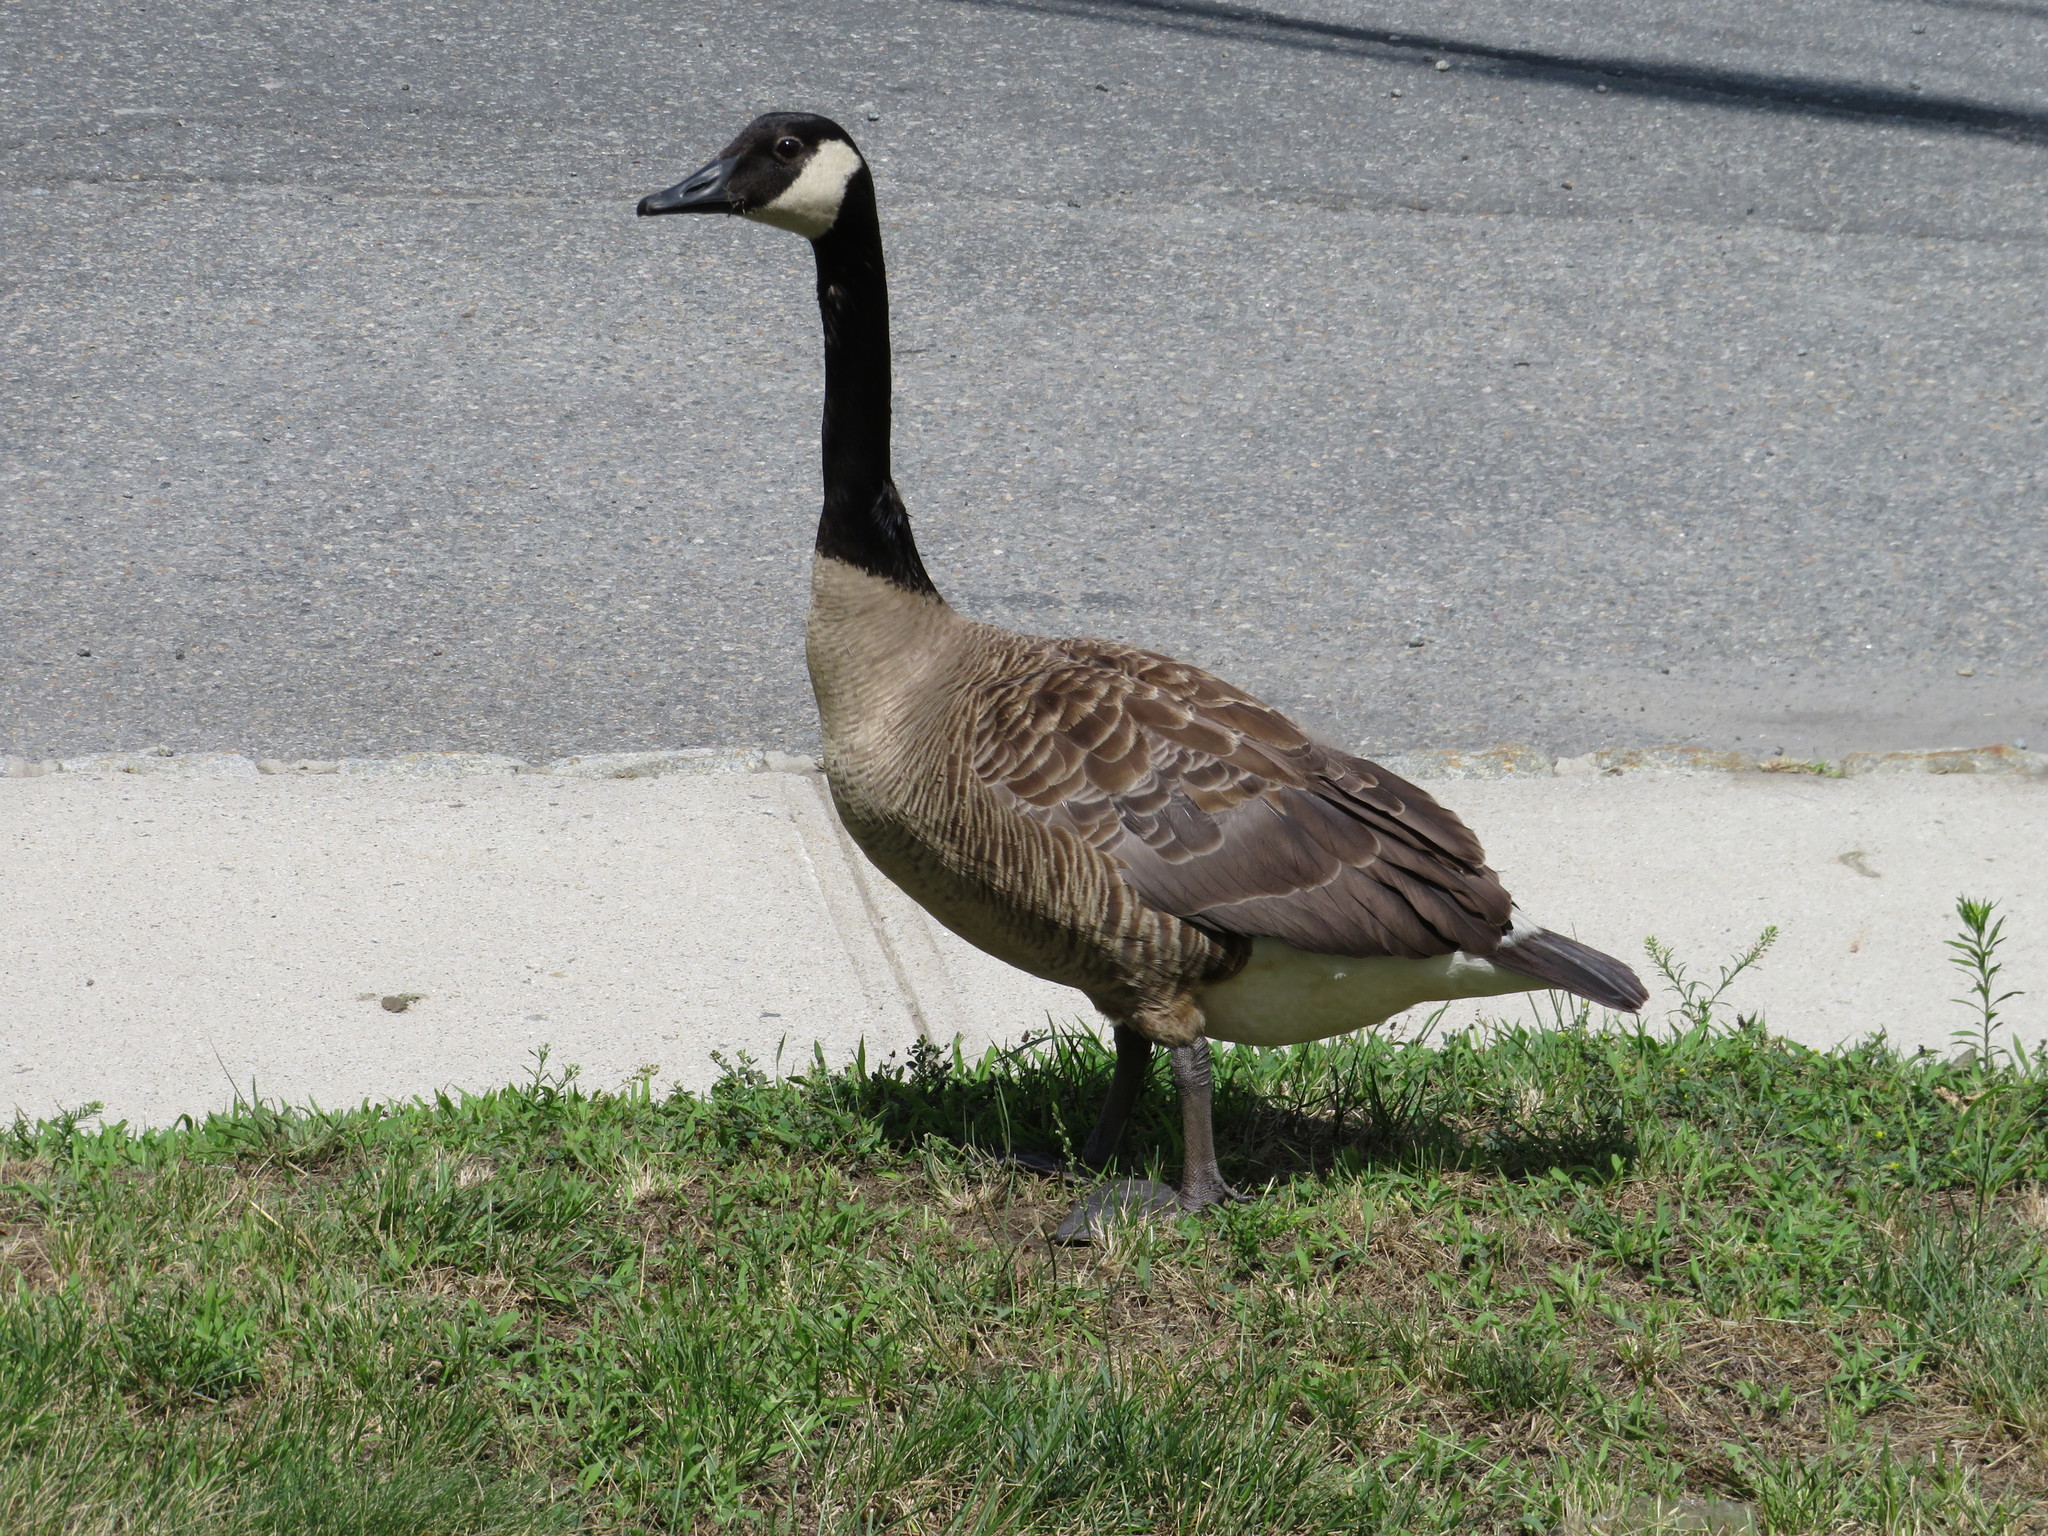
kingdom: Animalia
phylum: Chordata
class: Aves
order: Anseriformes
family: Anatidae
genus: Branta
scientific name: Branta canadensis
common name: Canada goose
